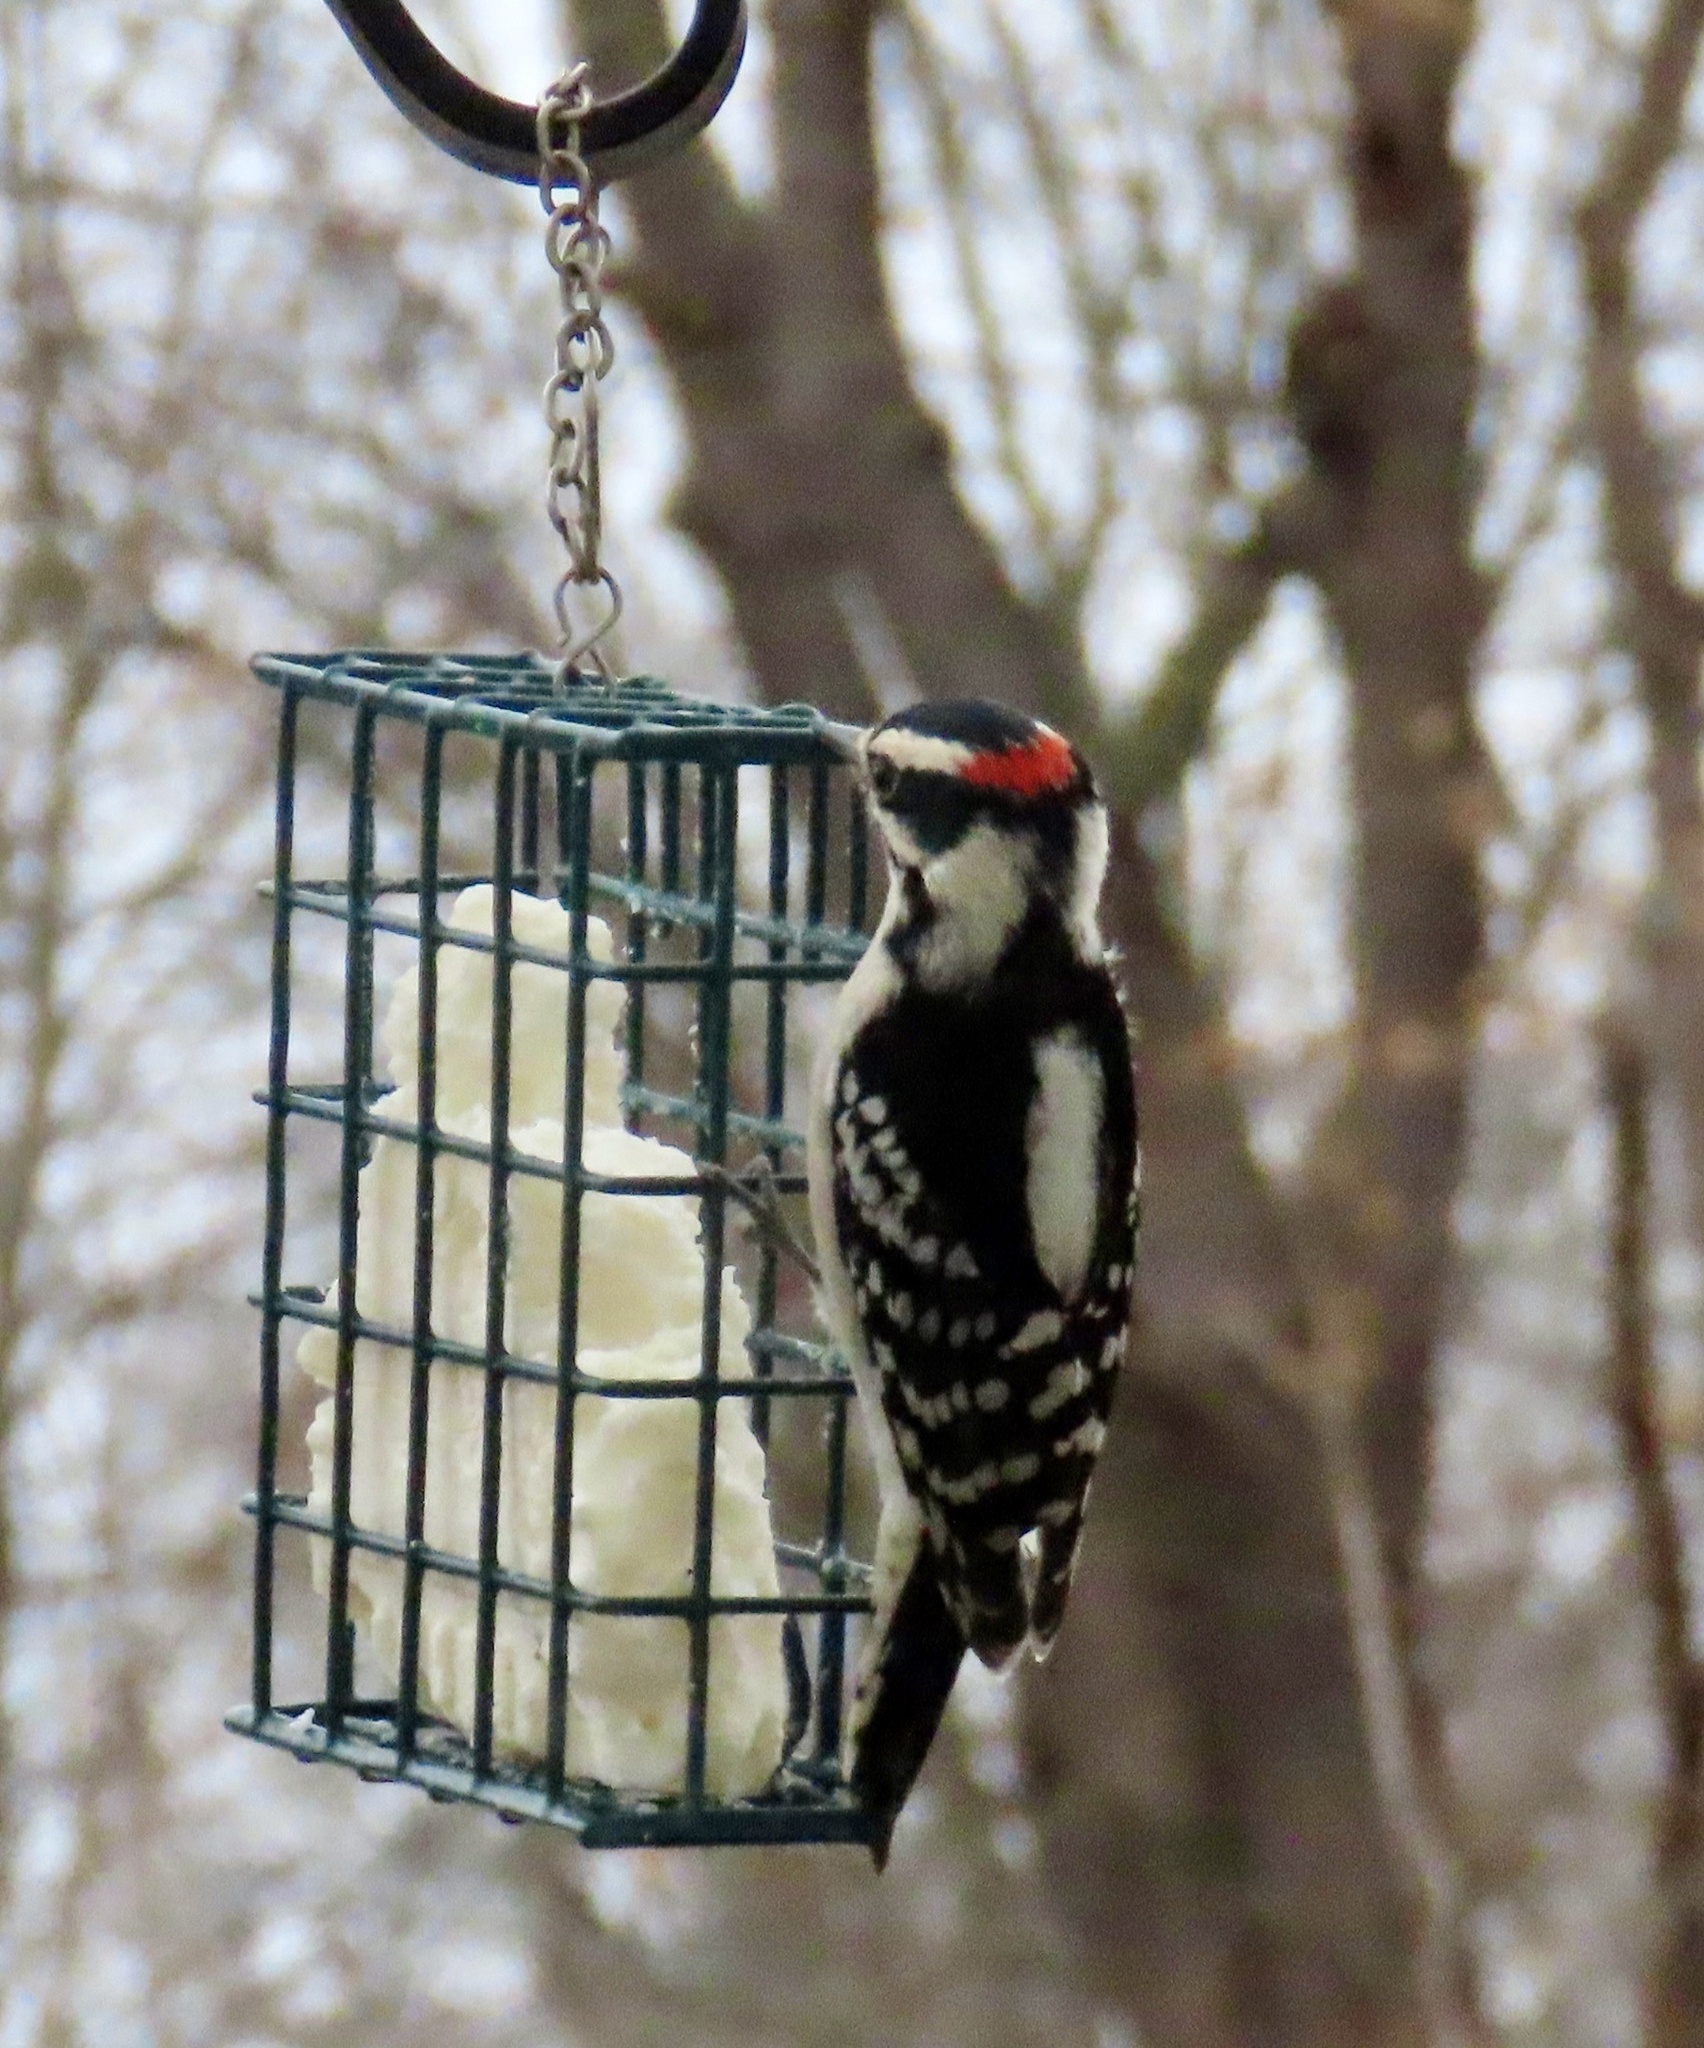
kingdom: Animalia
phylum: Chordata
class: Aves
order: Piciformes
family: Picidae
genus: Dryobates
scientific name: Dryobates pubescens
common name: Downy woodpecker
